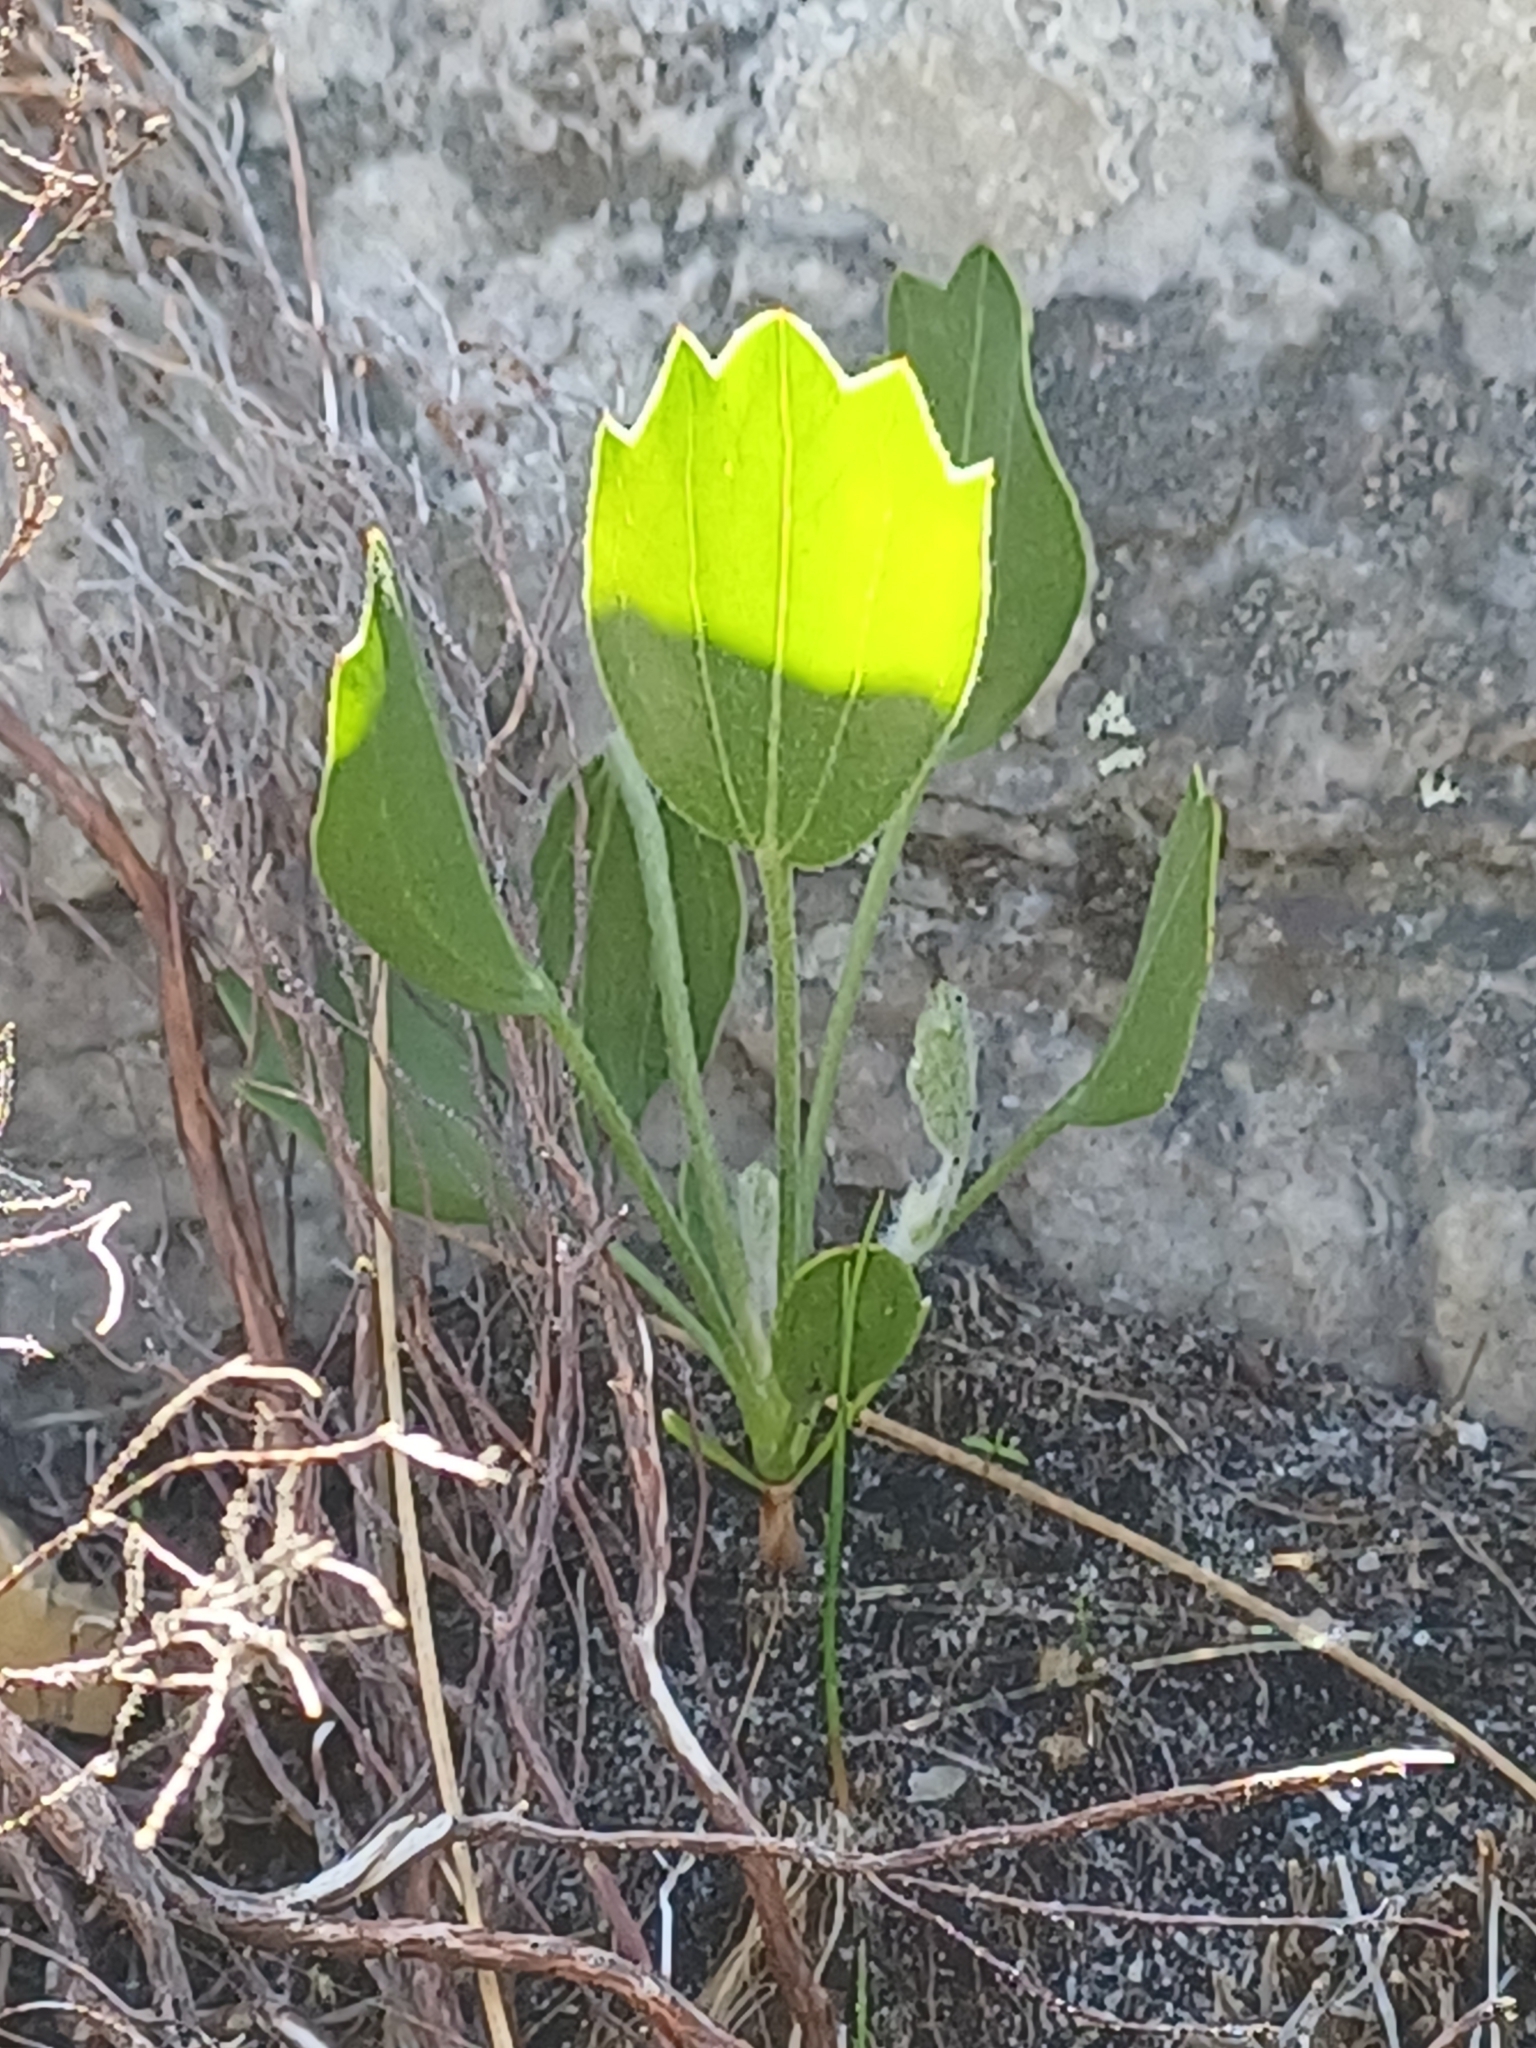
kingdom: Plantae
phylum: Tracheophyta
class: Magnoliopsida
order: Apiales
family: Apiaceae
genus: Centella
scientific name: Centella triloba
